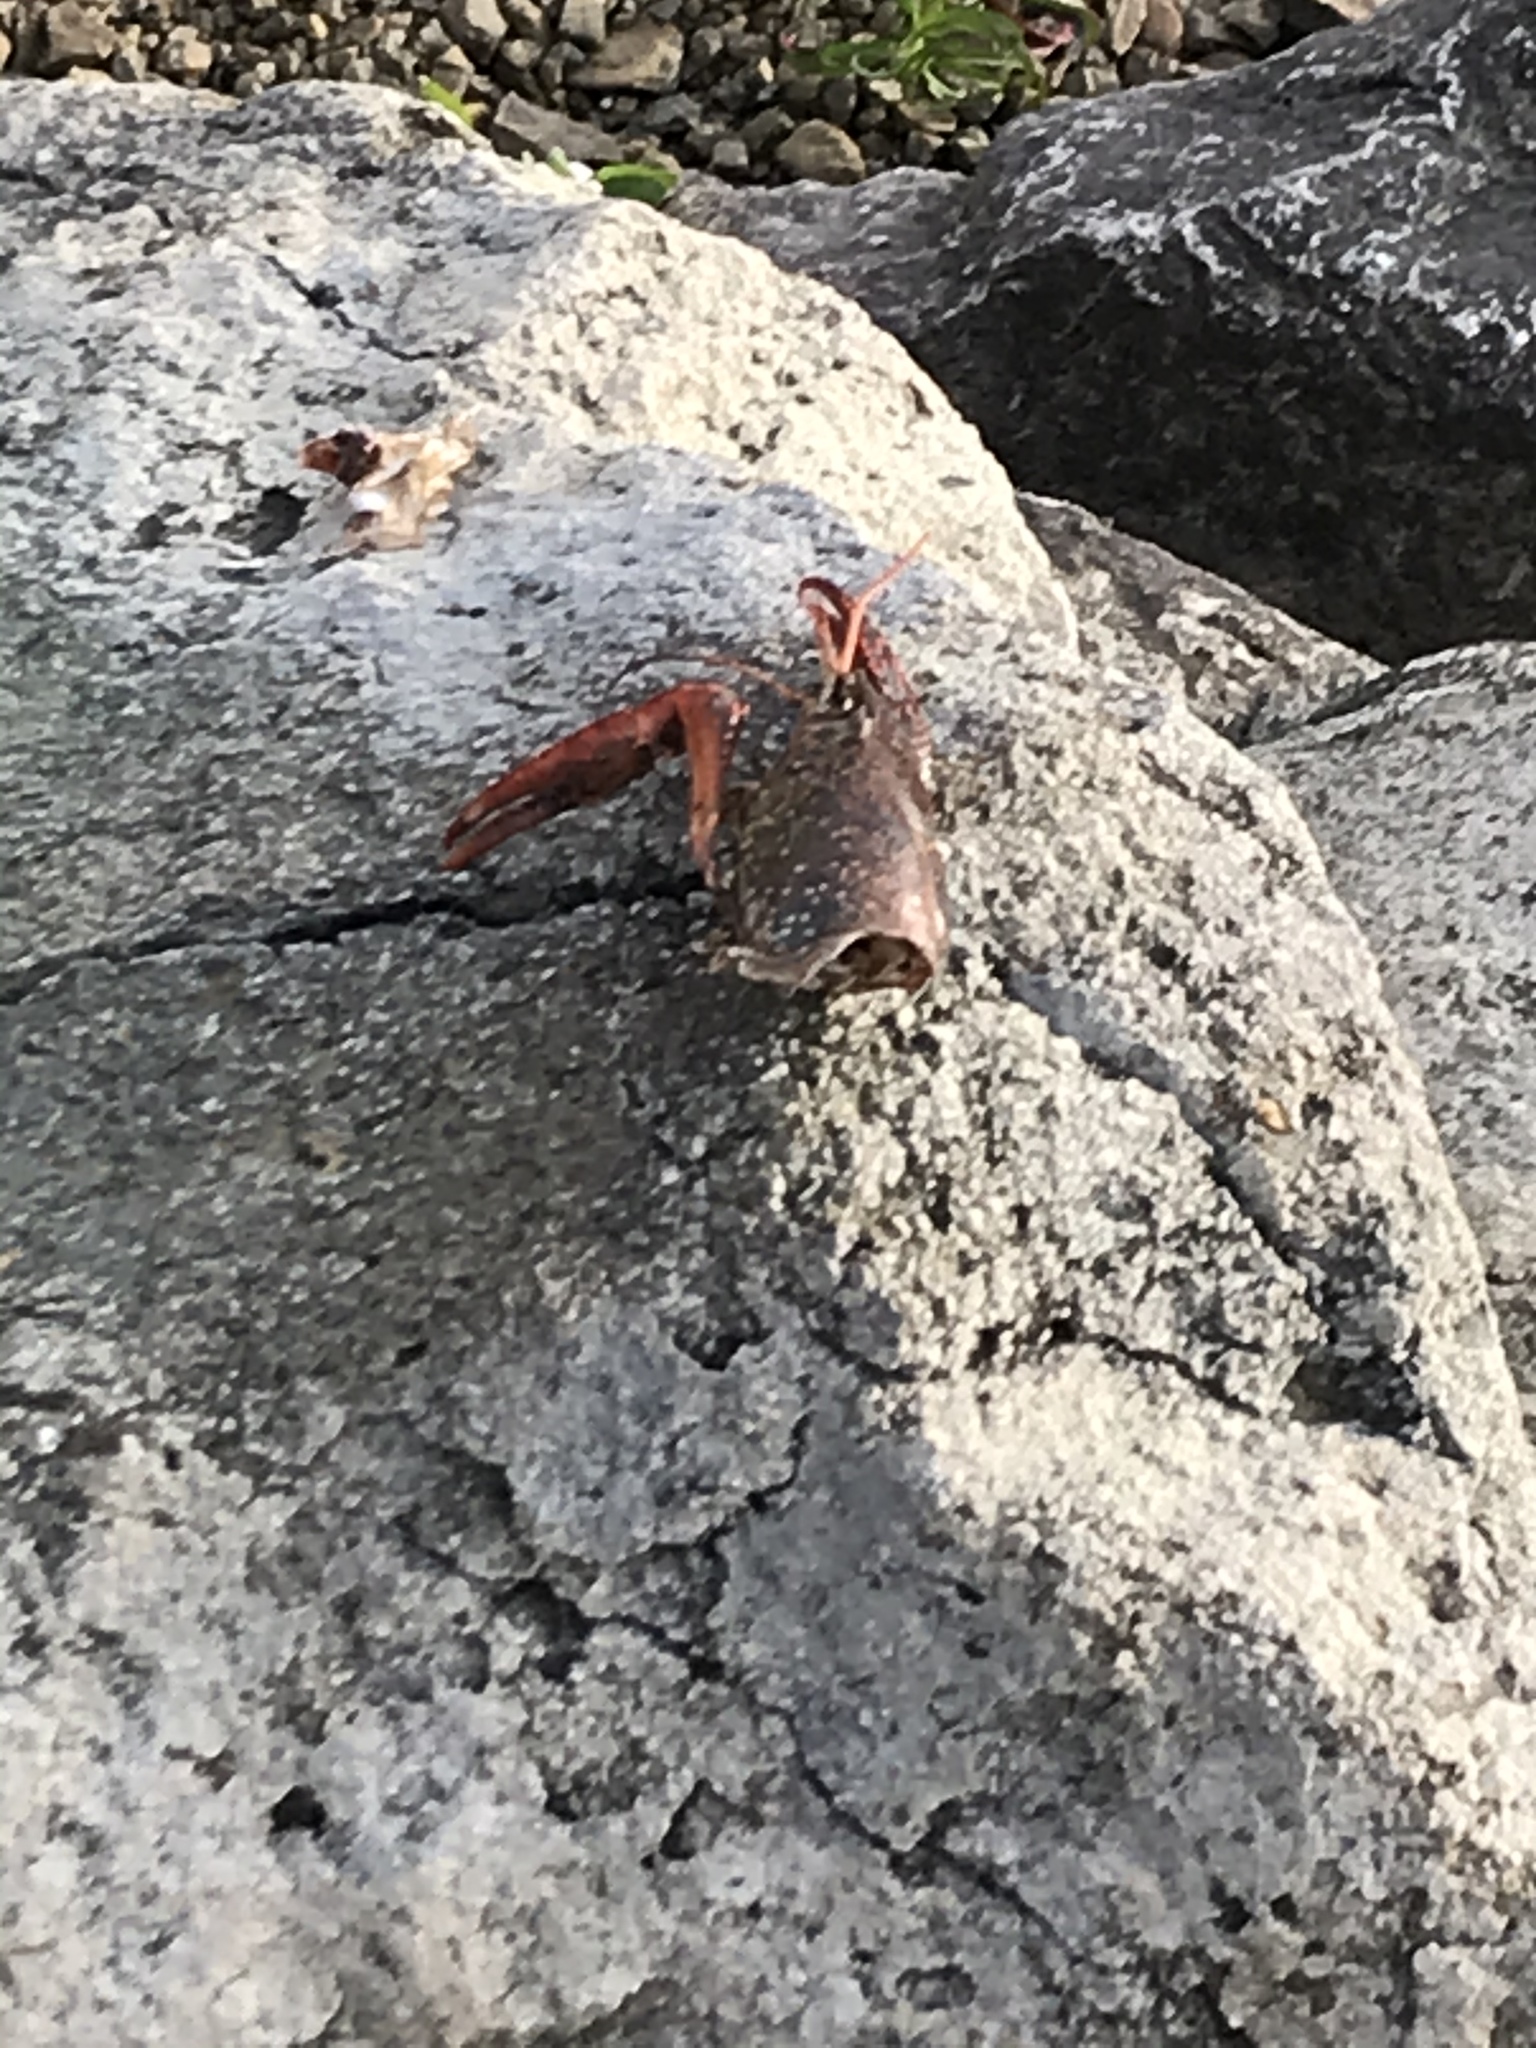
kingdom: Animalia
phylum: Arthropoda
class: Malacostraca
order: Decapoda
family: Cambaridae
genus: Procambarus
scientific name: Procambarus clarkii
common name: Red swamp crayfish
